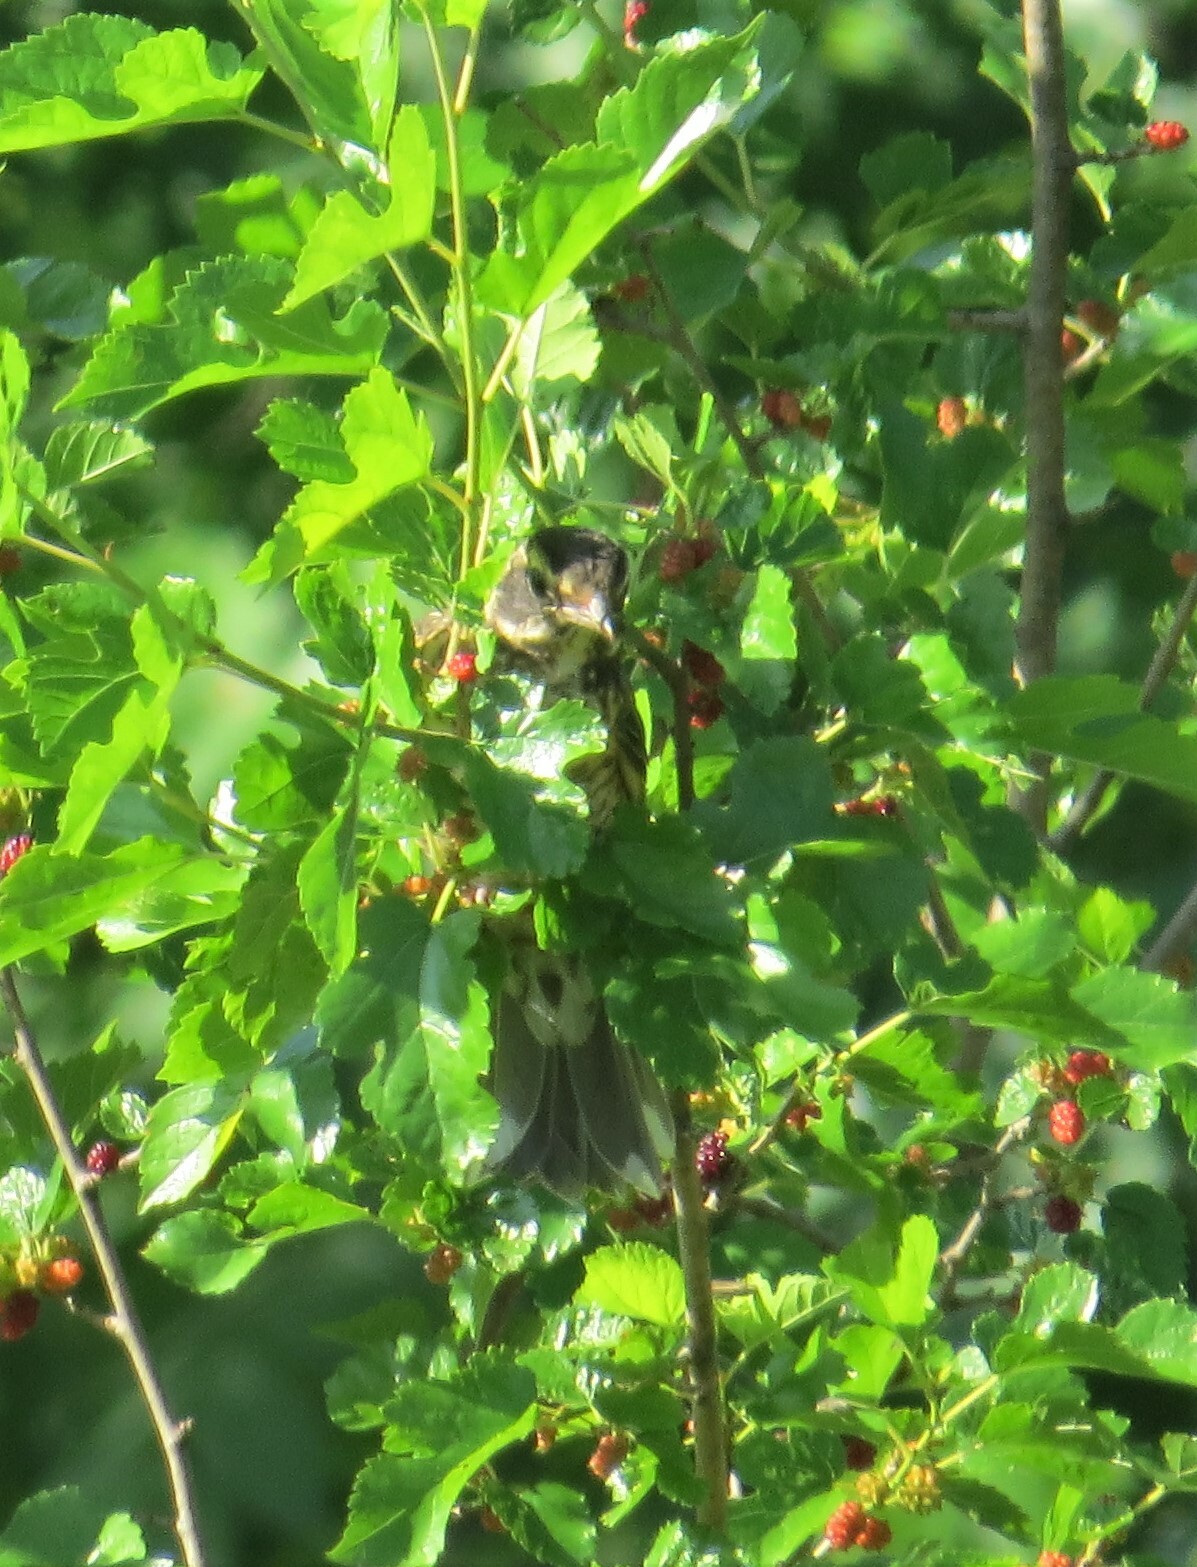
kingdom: Animalia
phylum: Chordata
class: Aves
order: Passeriformes
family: Turdidae
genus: Turdus
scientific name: Turdus migratorius
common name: American robin
